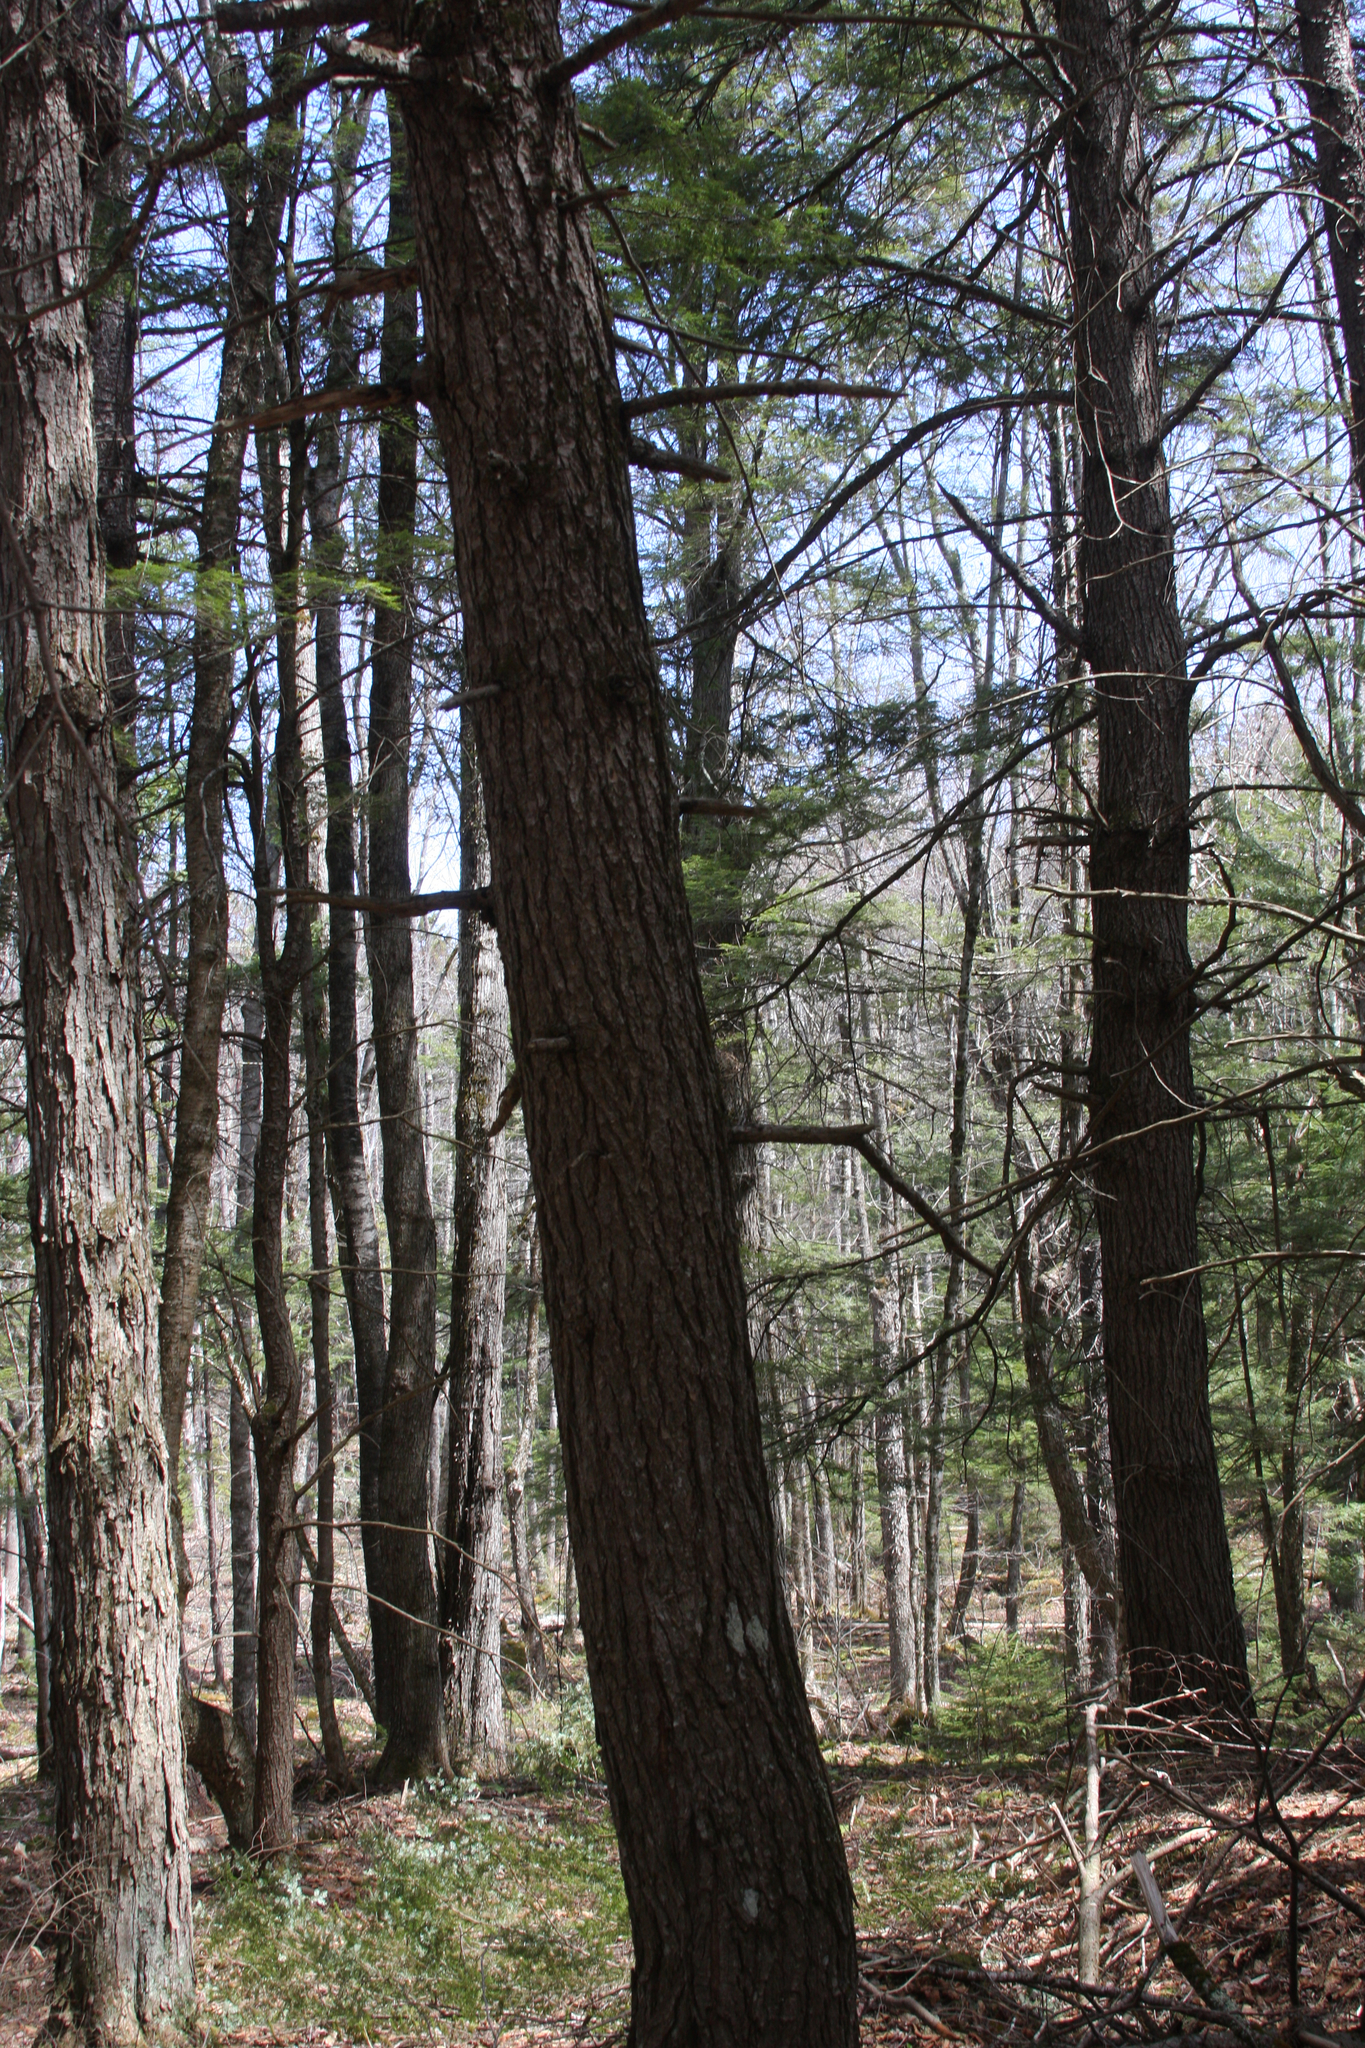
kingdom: Plantae
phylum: Tracheophyta
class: Pinopsida
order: Pinales
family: Pinaceae
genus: Tsuga
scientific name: Tsuga canadensis
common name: Eastern hemlock
